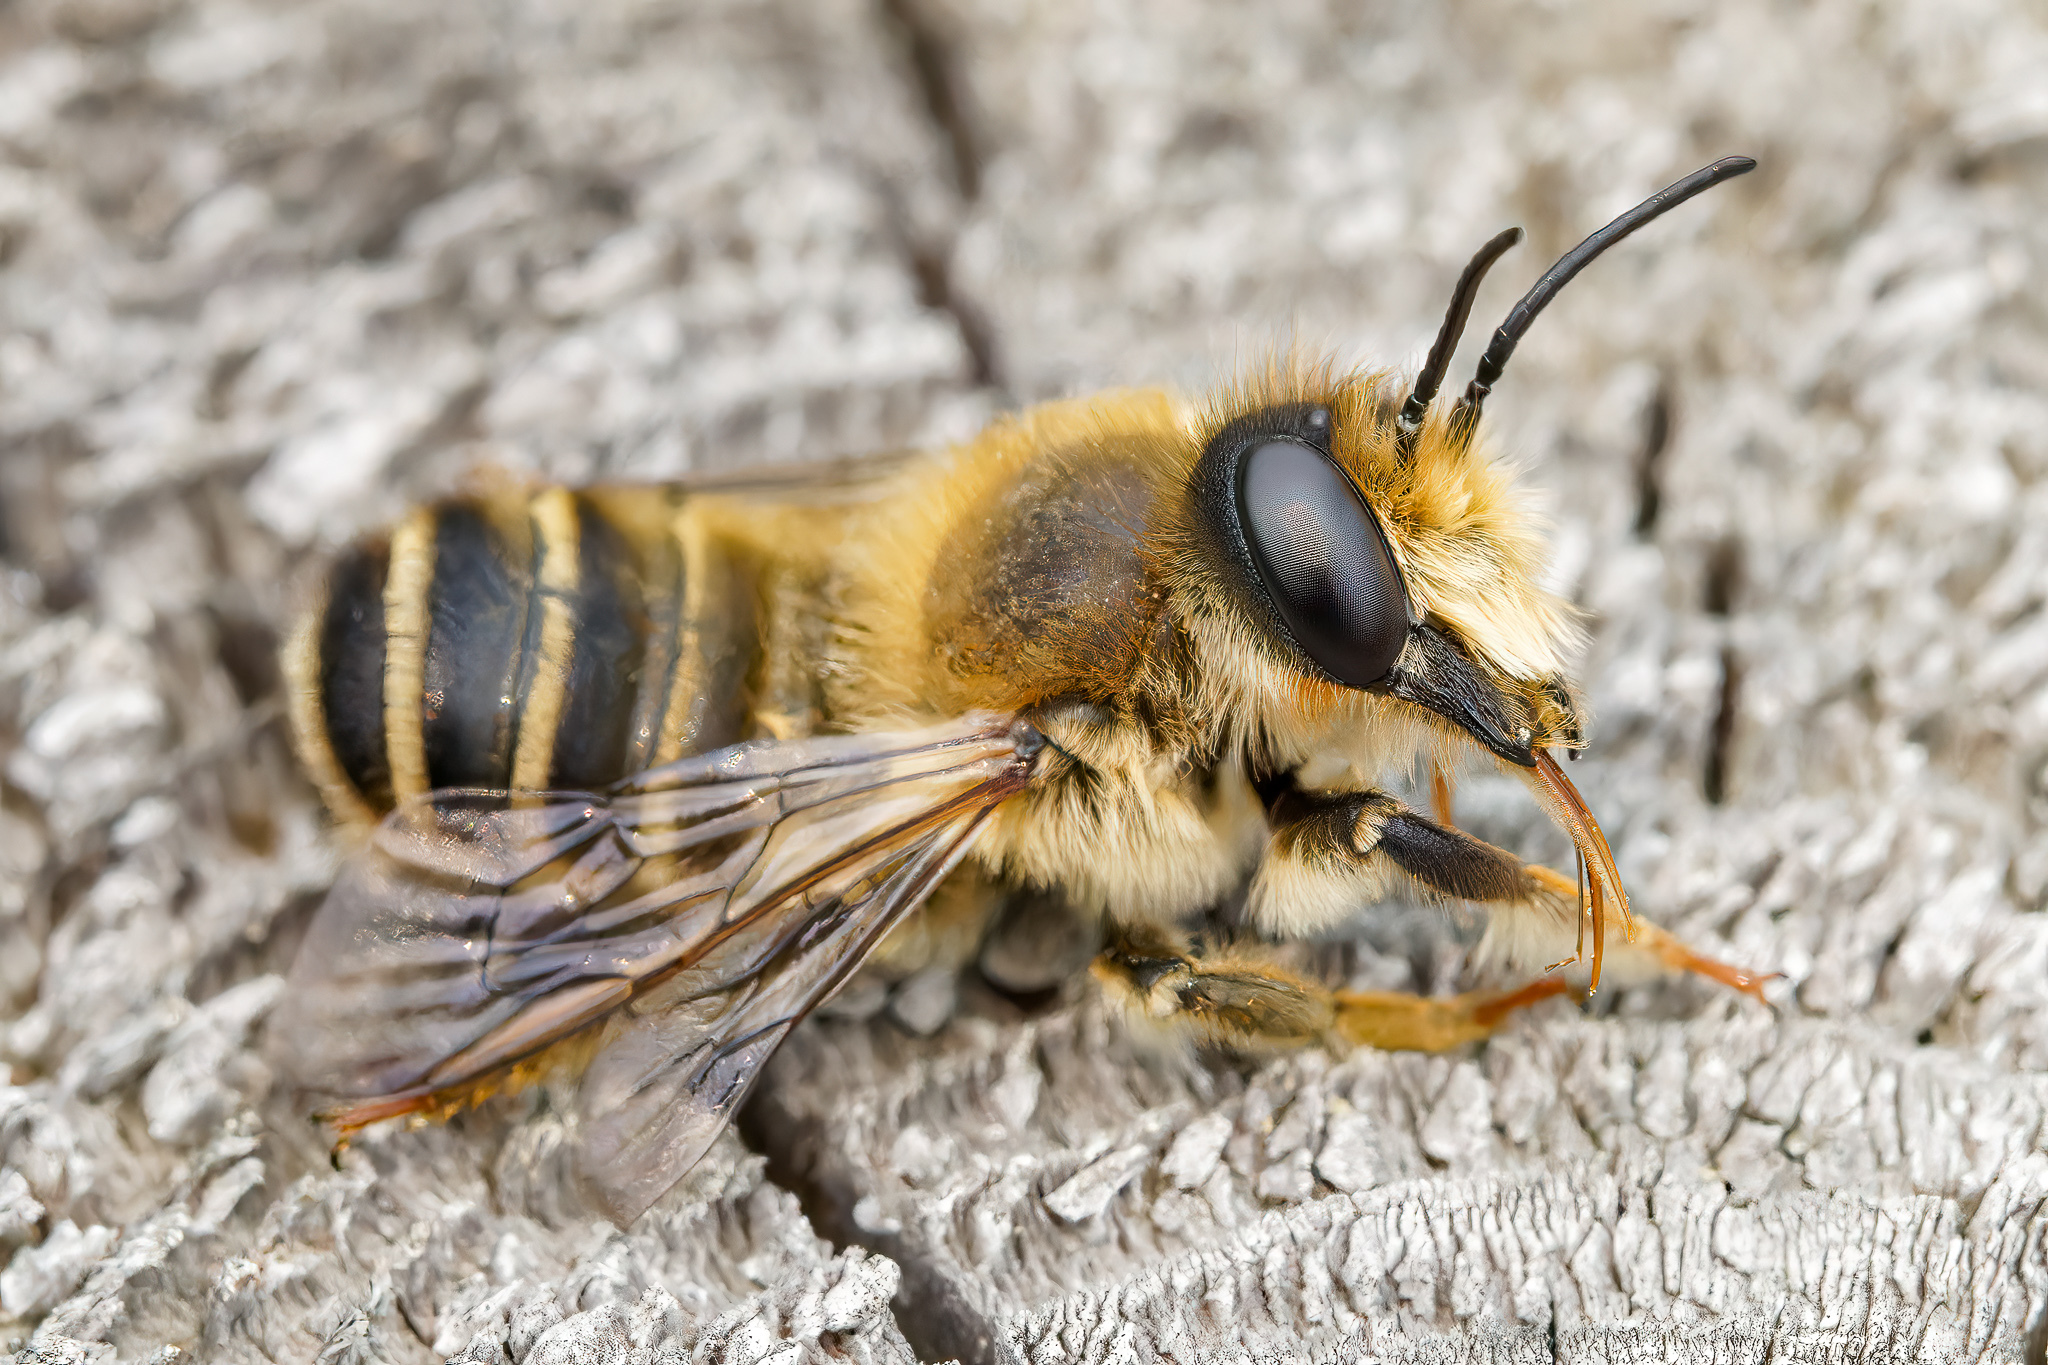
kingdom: Animalia
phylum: Arthropoda
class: Insecta
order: Hymenoptera
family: Megachilidae
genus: Megachile
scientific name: Megachile ericetorum
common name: Leafcutter bee
